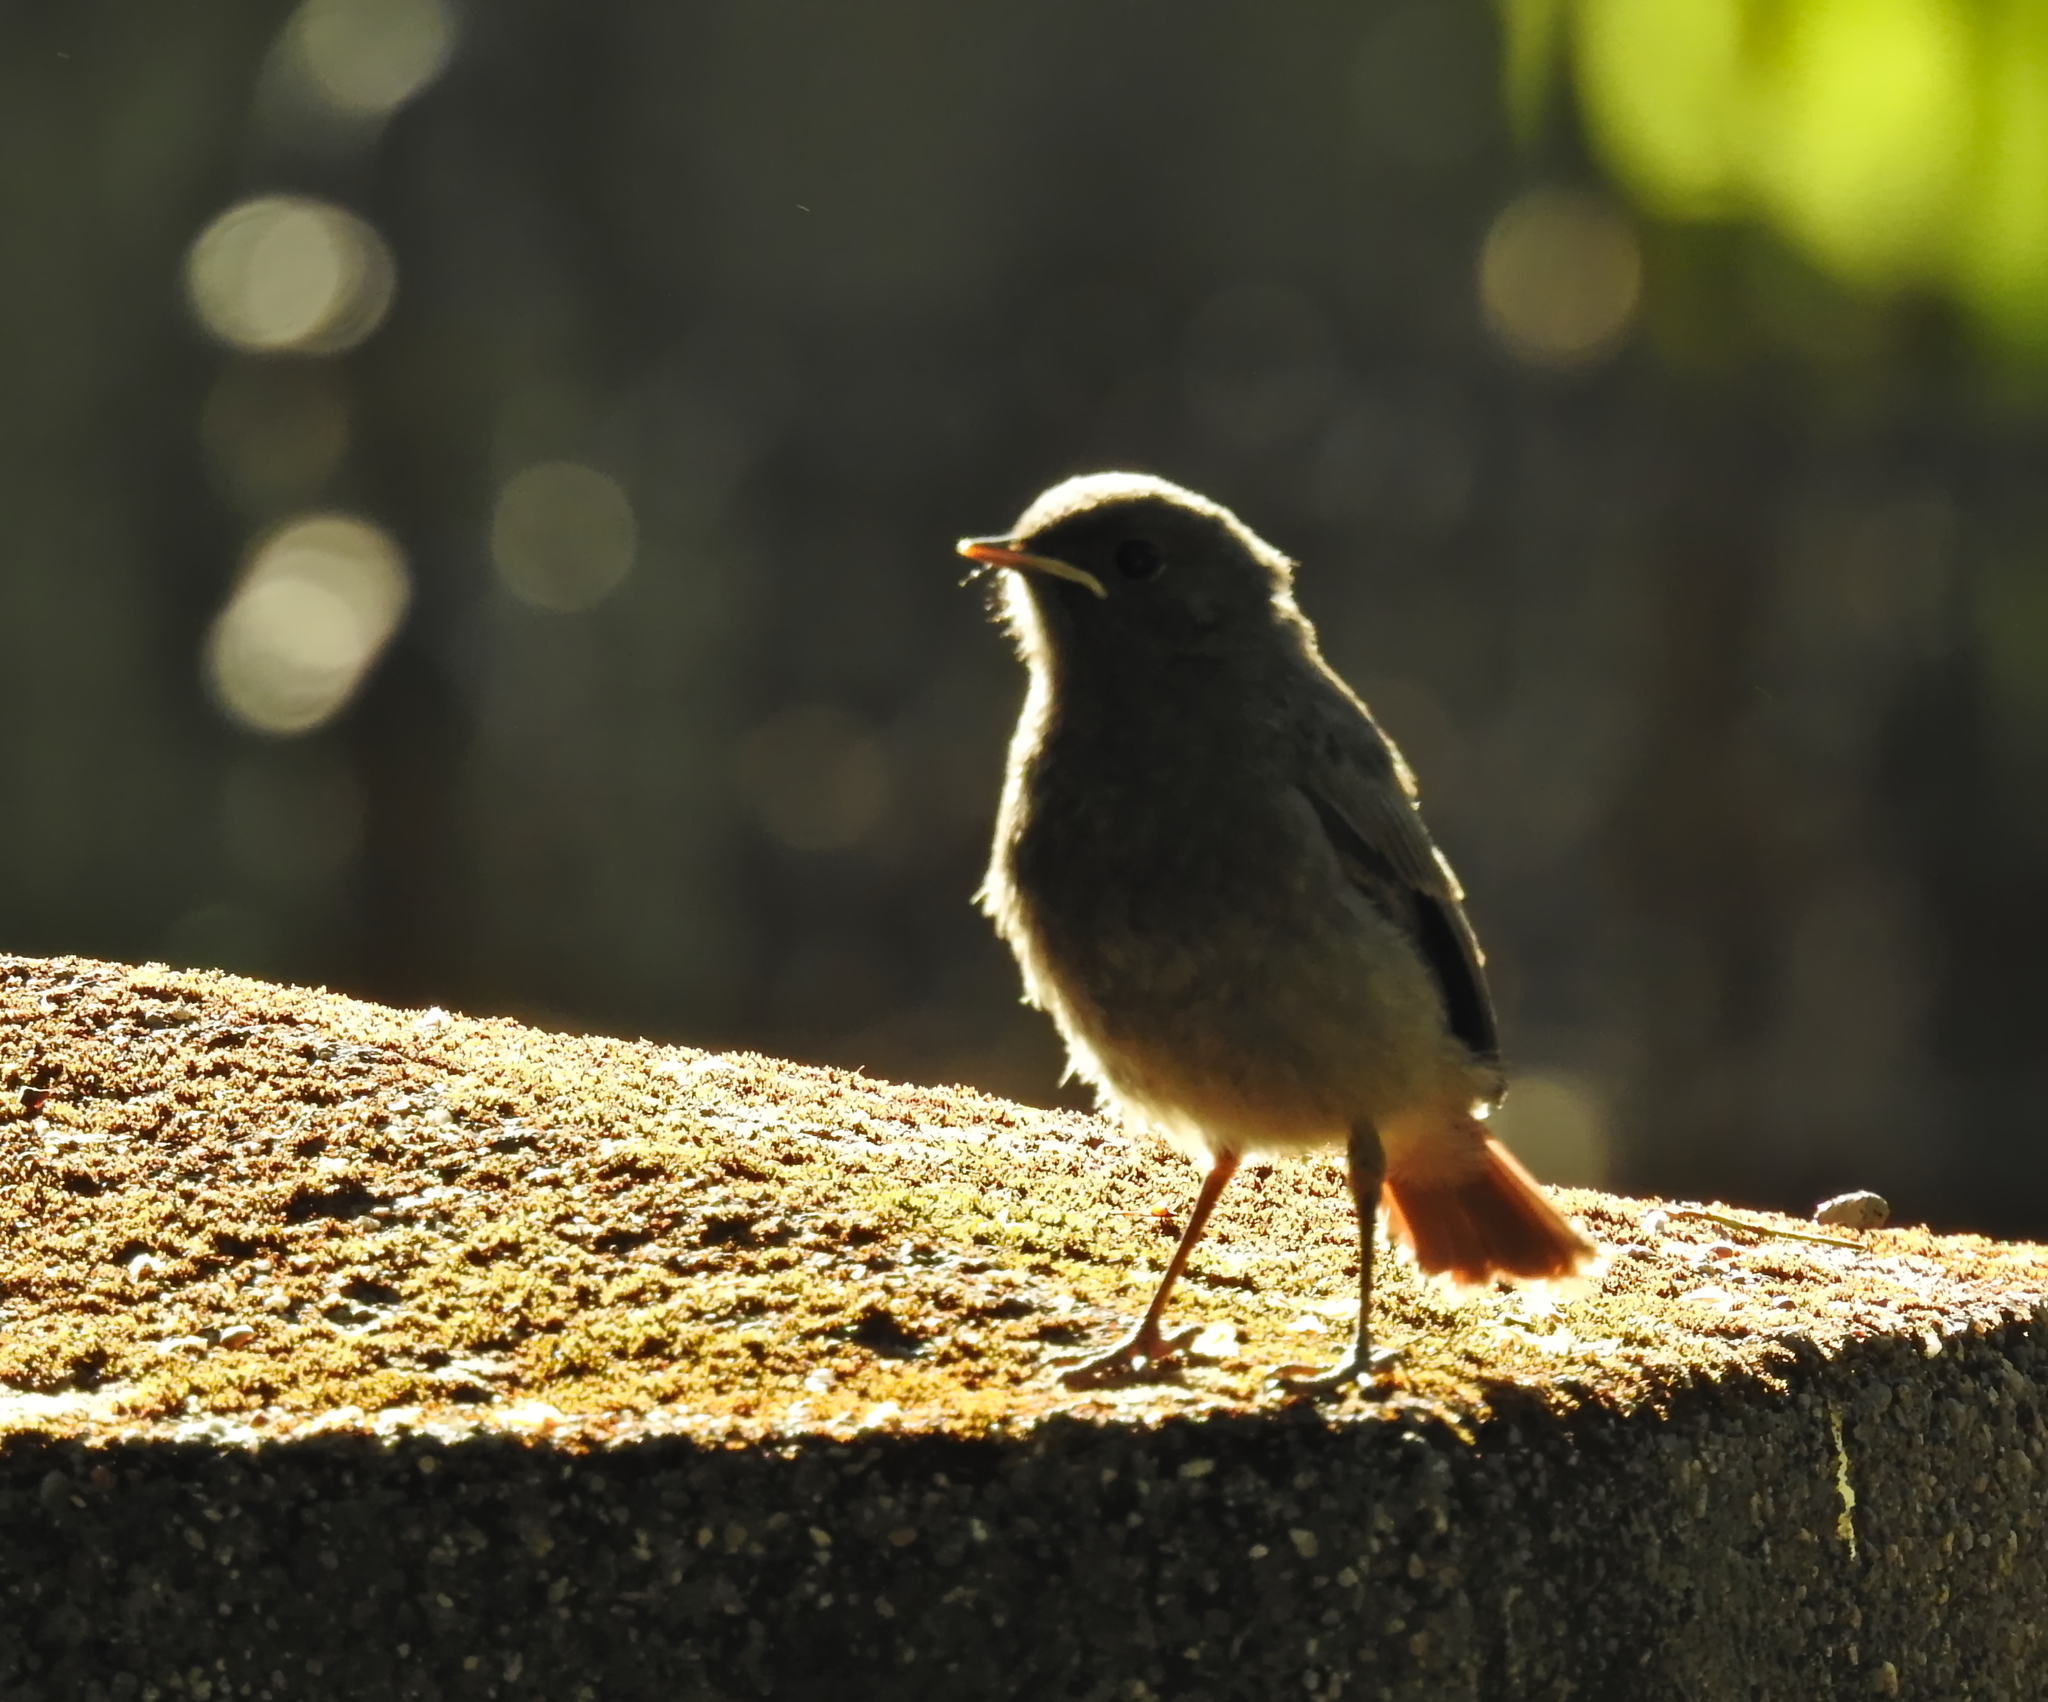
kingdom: Animalia
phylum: Chordata
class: Aves
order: Passeriformes
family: Muscicapidae
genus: Phoenicurus
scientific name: Phoenicurus ochruros
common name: Black redstart
